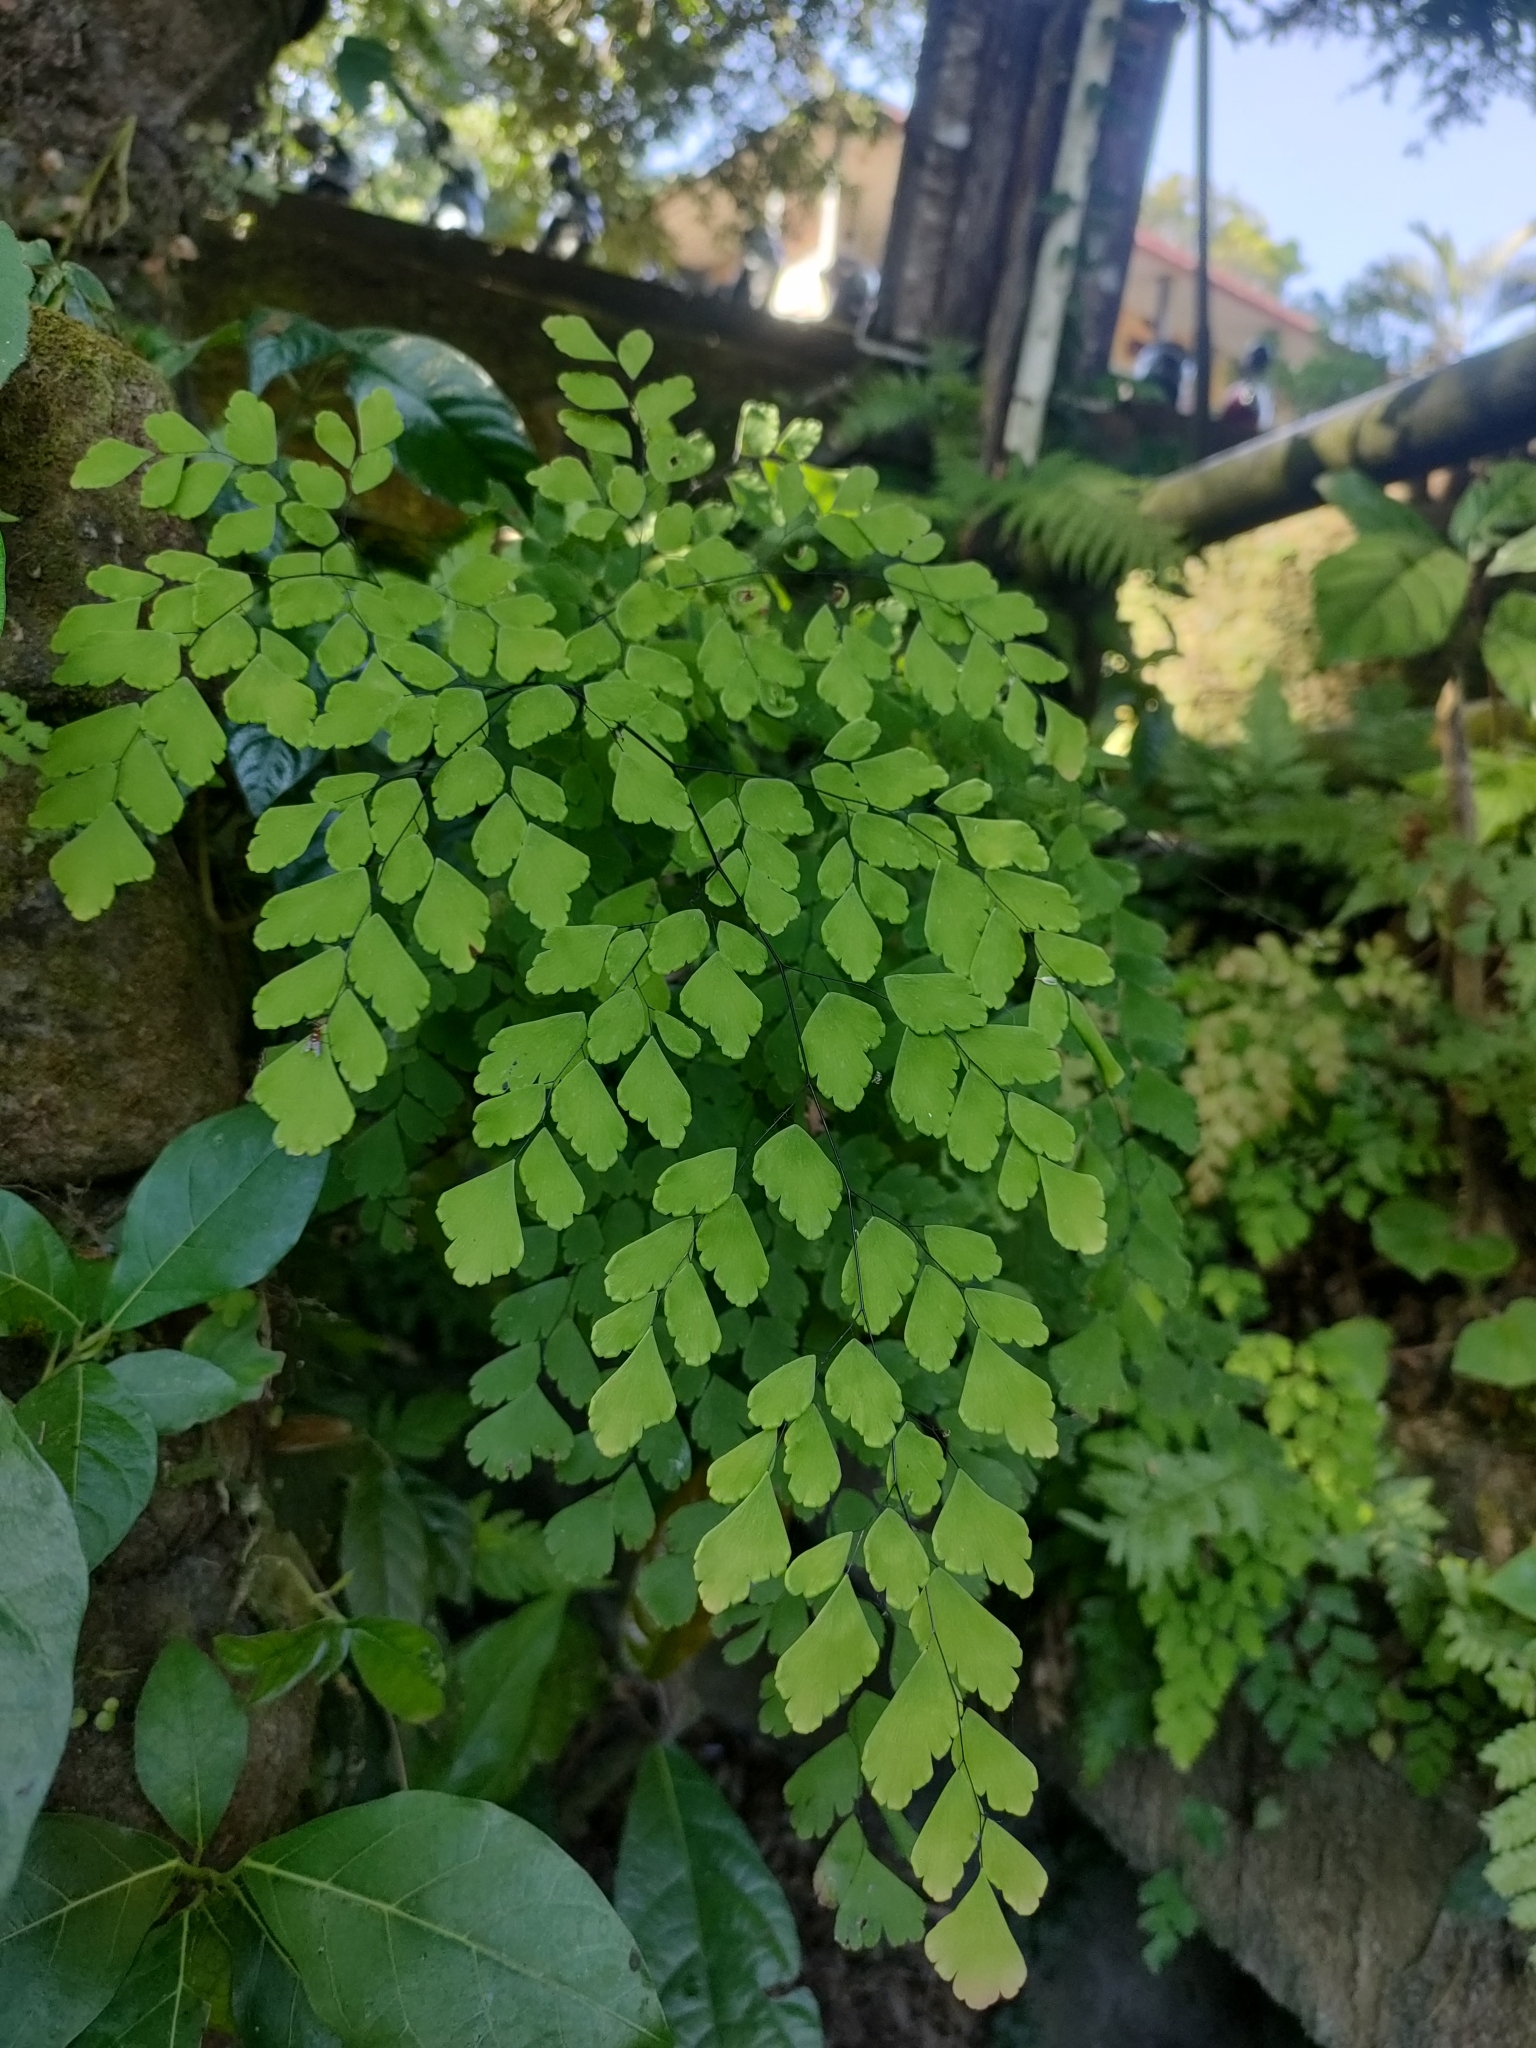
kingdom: Plantae
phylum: Tracheophyta
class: Polypodiopsida
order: Polypodiales
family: Pteridaceae
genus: Adiantum
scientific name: Adiantum tenerum
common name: Fan maidenhair
